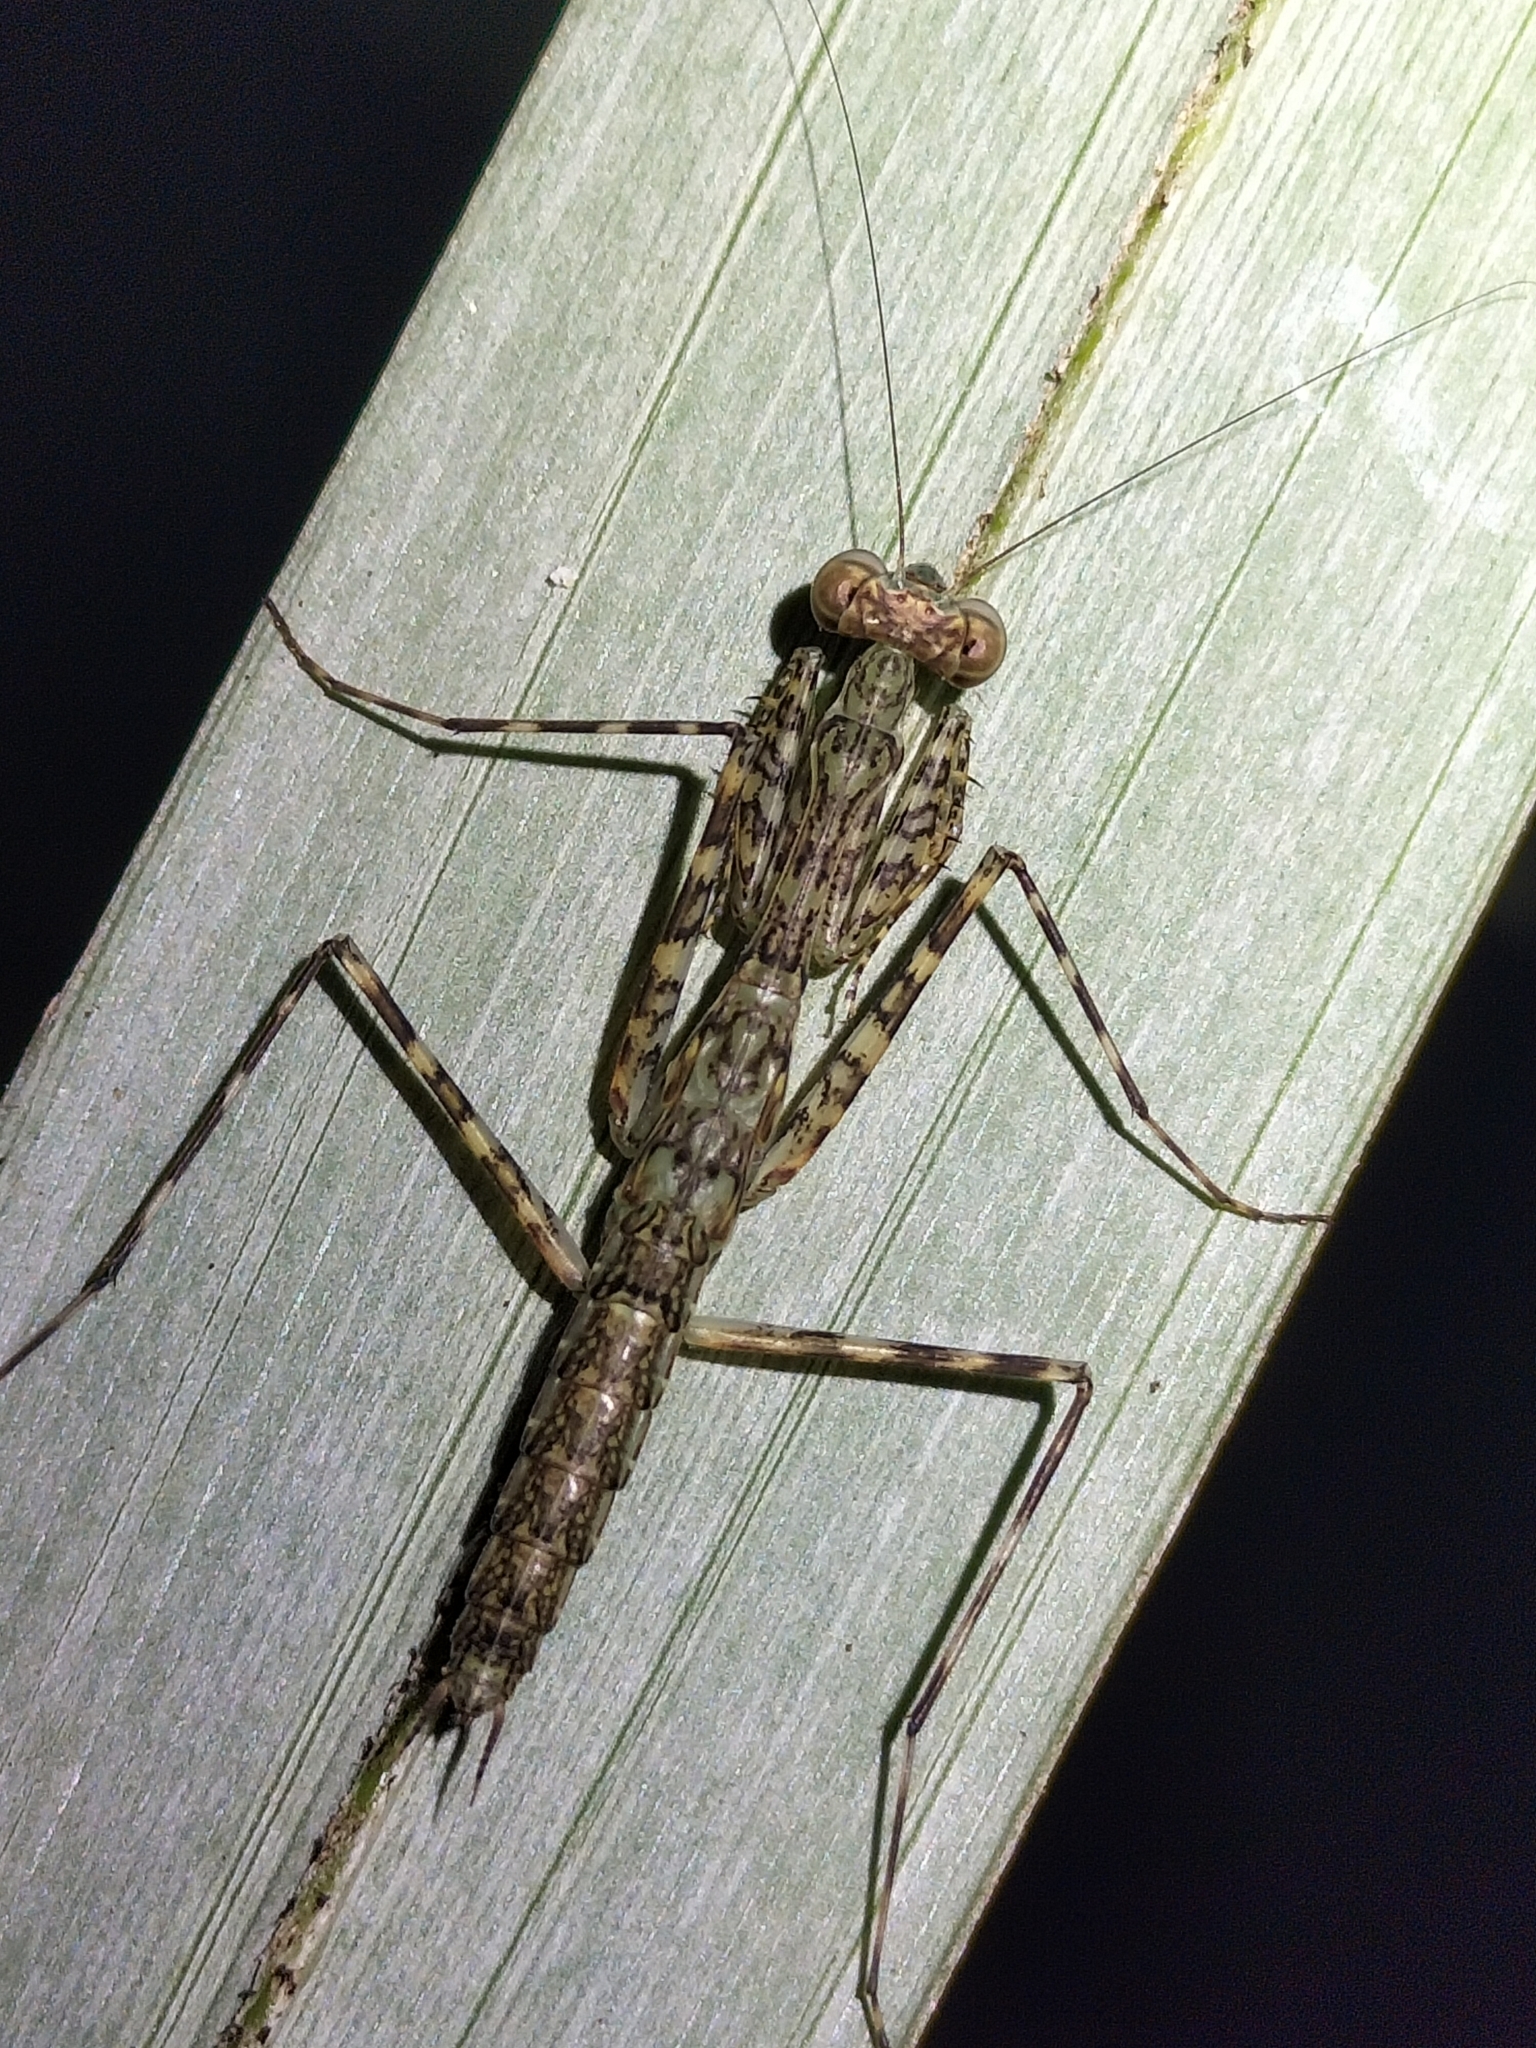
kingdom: Animalia
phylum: Arthropoda
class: Insecta
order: Mantodea
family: Nanomantidae
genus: Ciulfina
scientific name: Ciulfina rentzi
